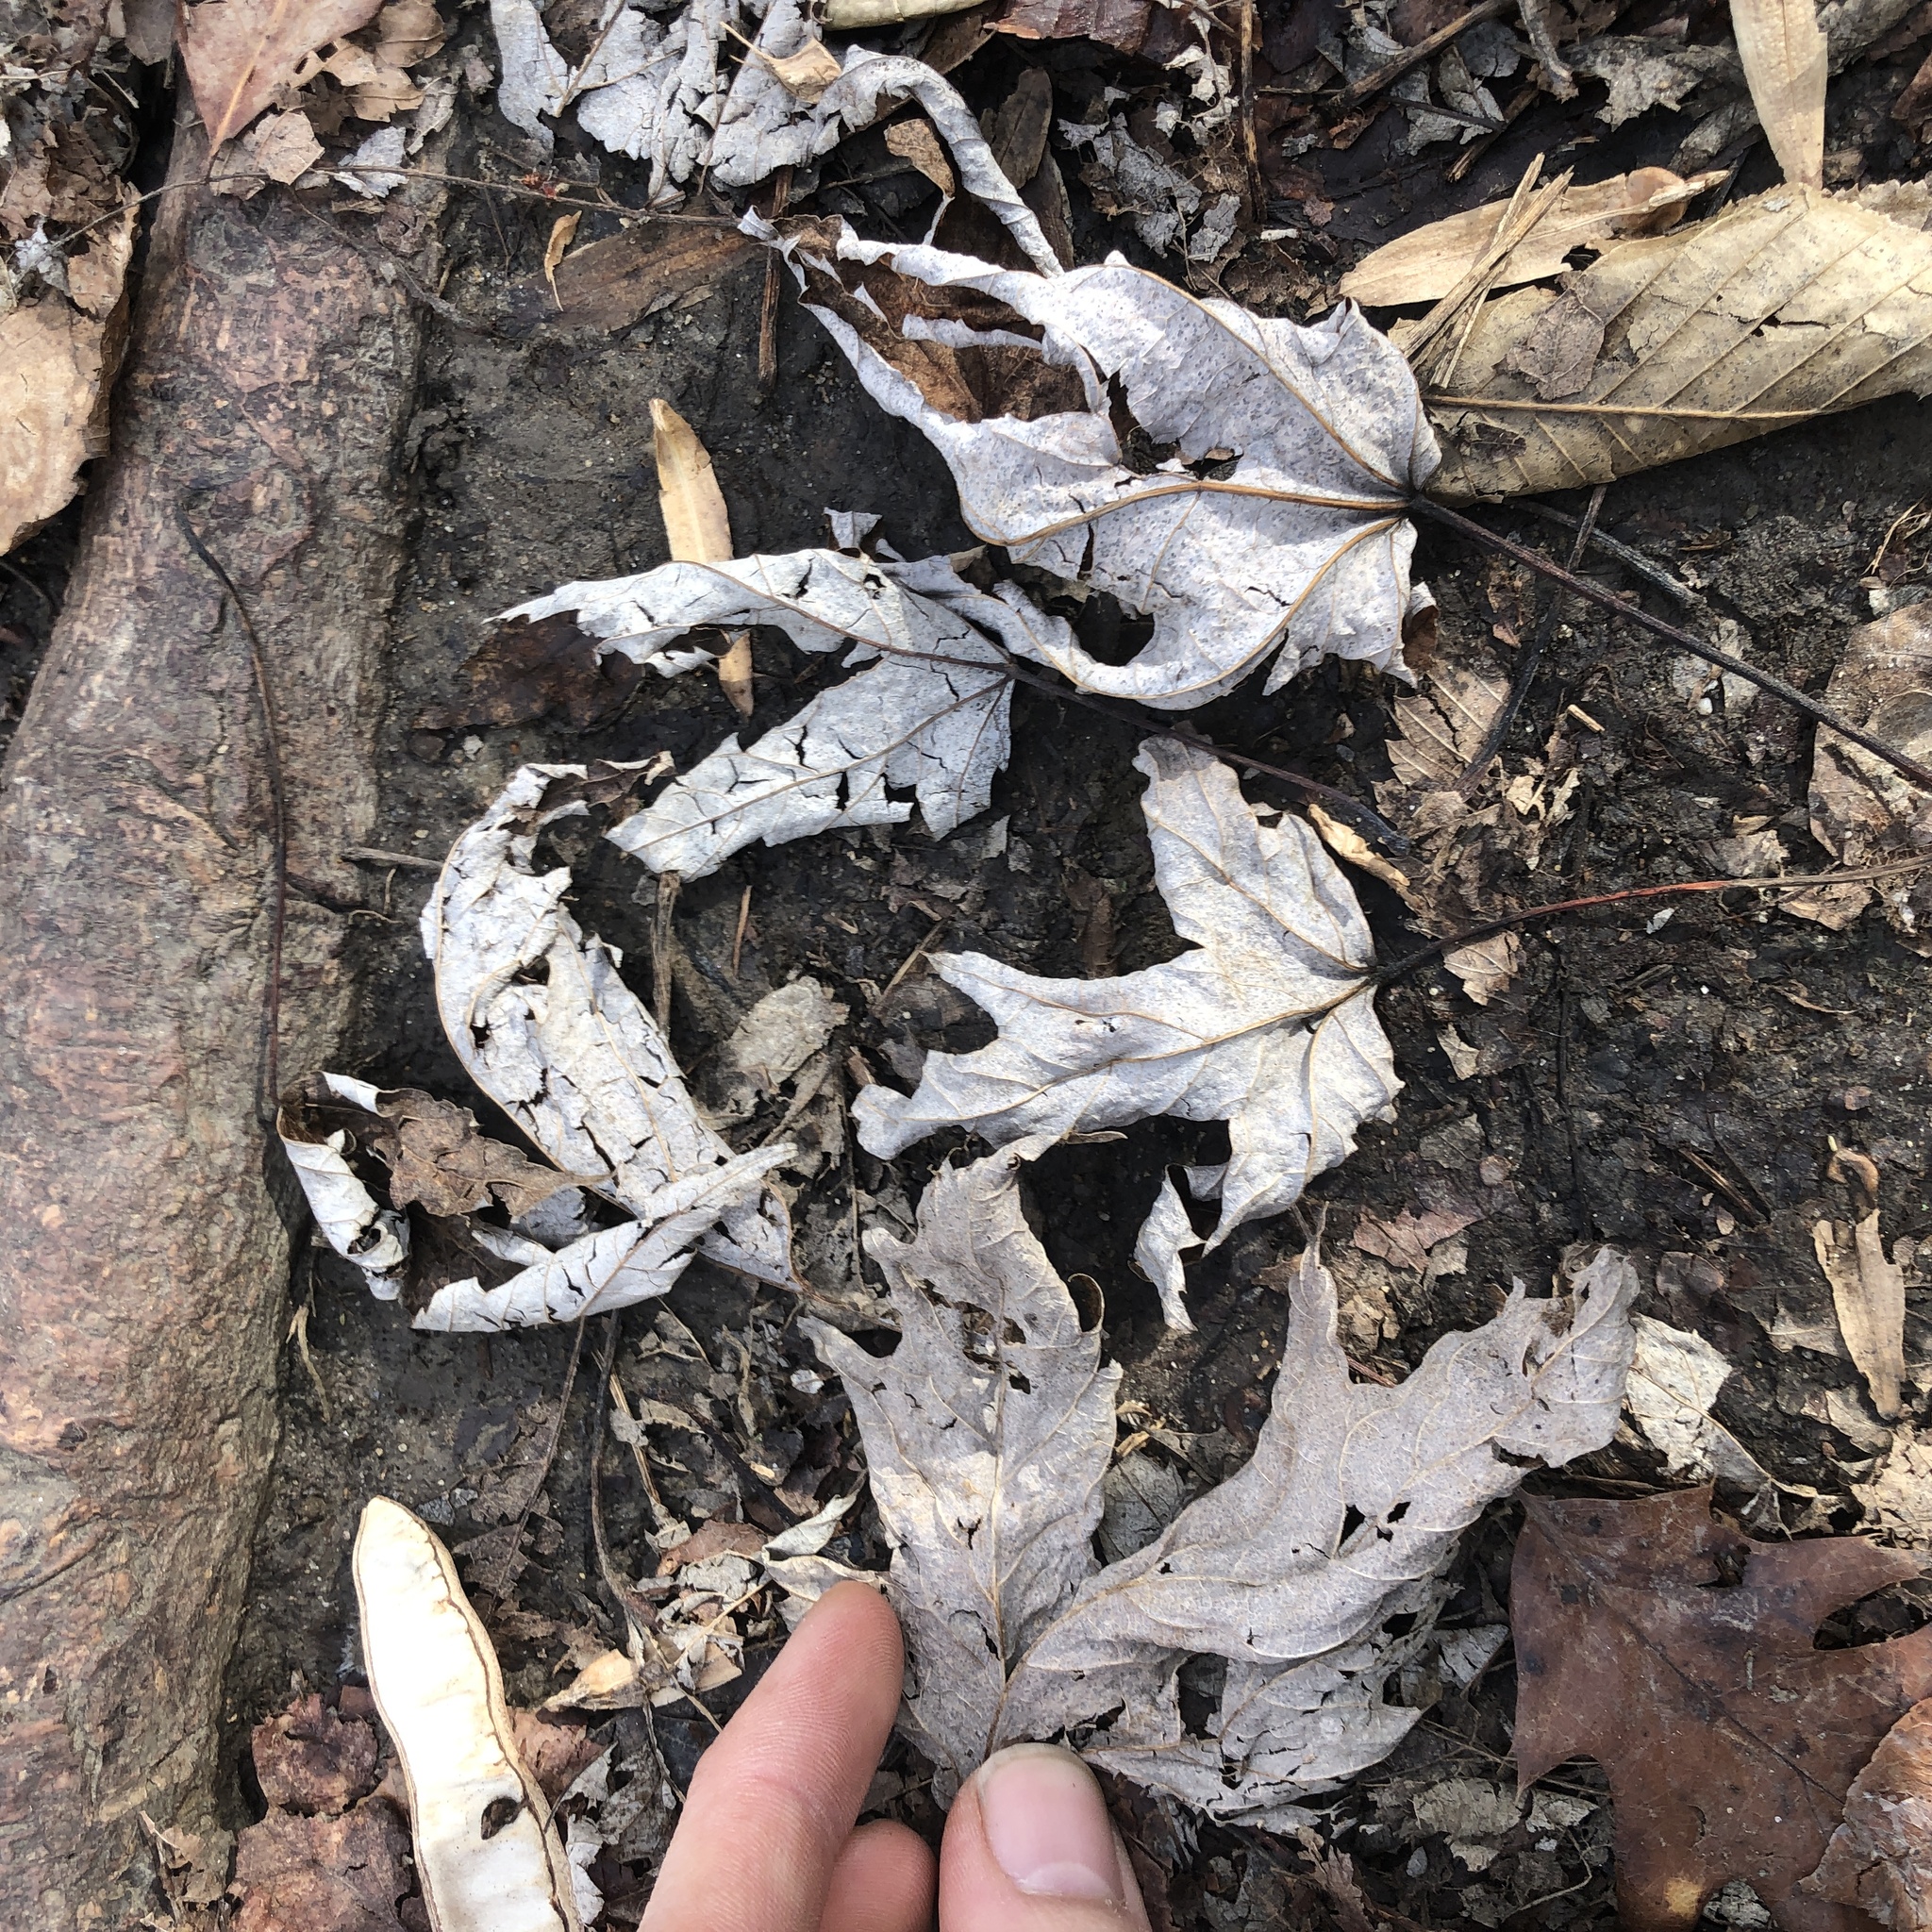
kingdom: Plantae
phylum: Tracheophyta
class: Magnoliopsida
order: Sapindales
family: Sapindaceae
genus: Acer
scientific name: Acer saccharinum
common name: Silver maple
